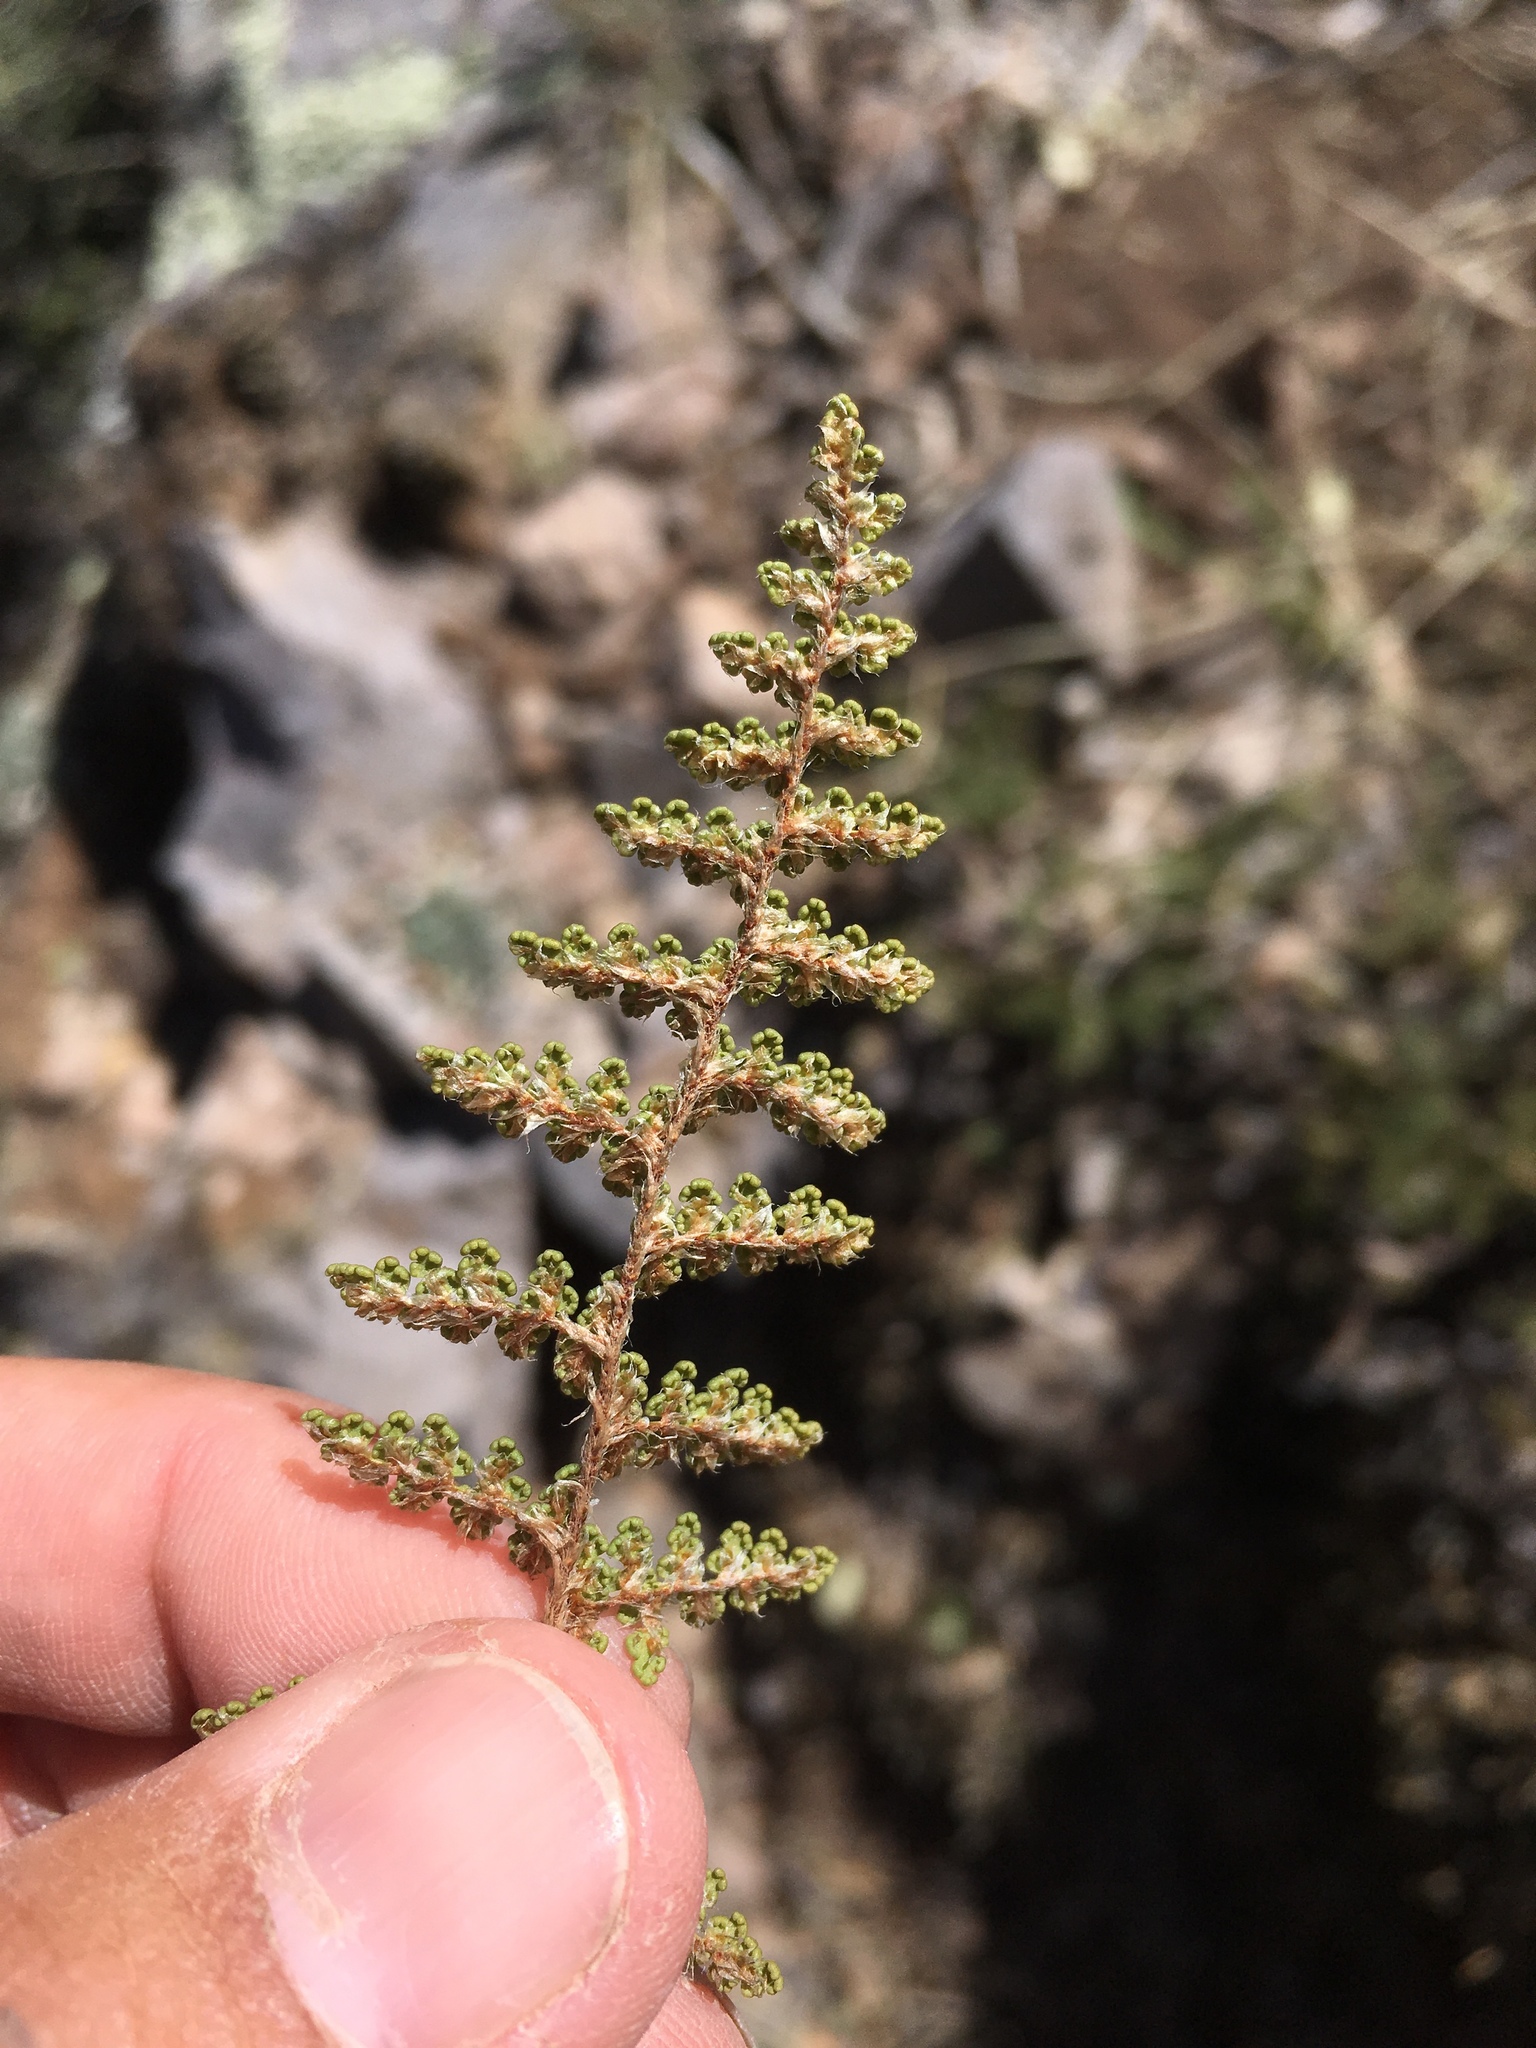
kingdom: Plantae
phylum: Tracheophyta
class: Polypodiopsida
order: Polypodiales
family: Pteridaceae
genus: Myriopteris
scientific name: Myriopteris fendleri
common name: Fendler's lip fern
